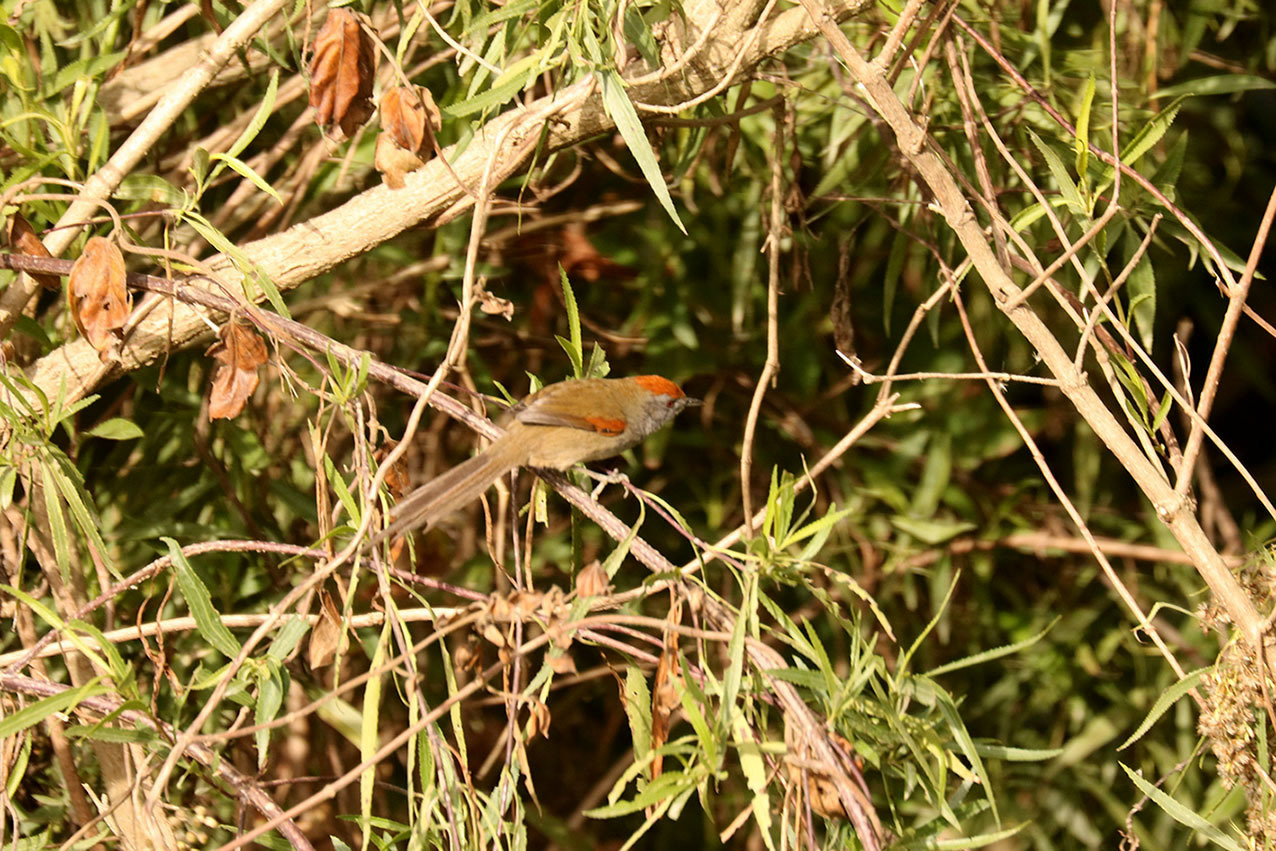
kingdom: Animalia
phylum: Chordata
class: Aves
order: Passeriformes
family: Furnariidae
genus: Synallaxis
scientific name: Synallaxis spixi
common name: Spix's spinetail
